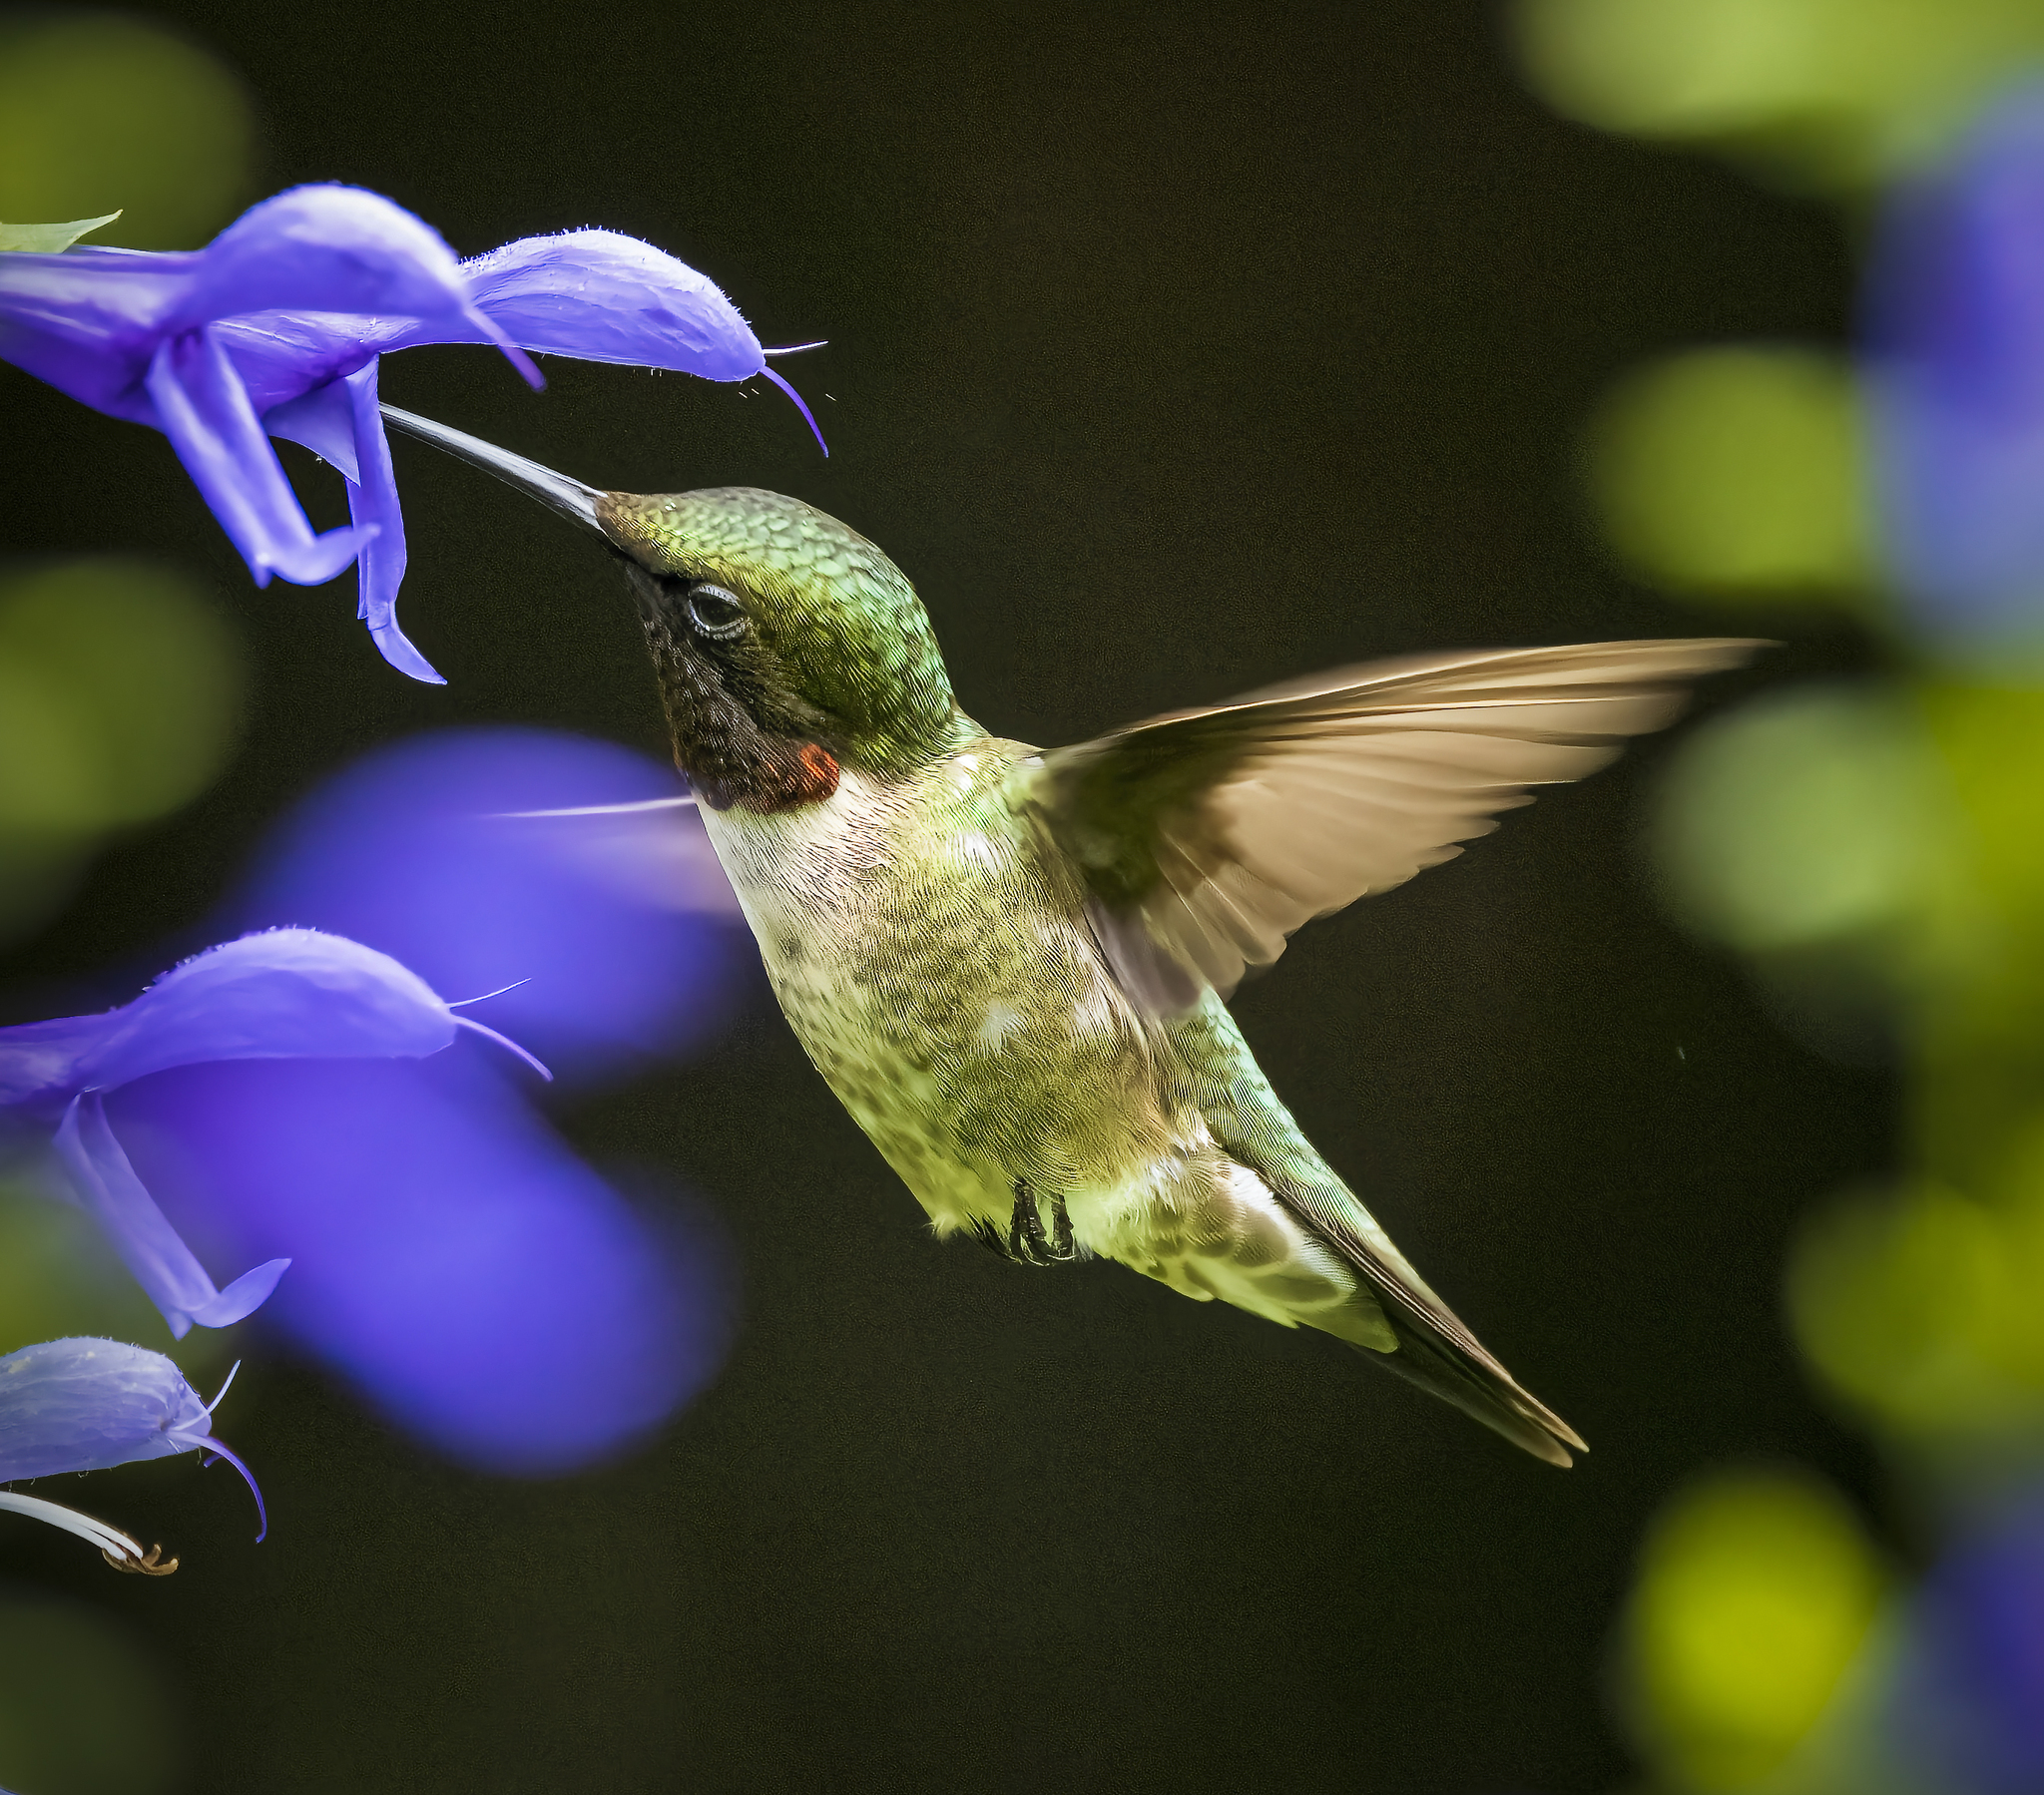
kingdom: Animalia
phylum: Chordata
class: Aves
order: Apodiformes
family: Trochilidae
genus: Archilochus
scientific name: Archilochus colubris
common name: Ruby-throated hummingbird
